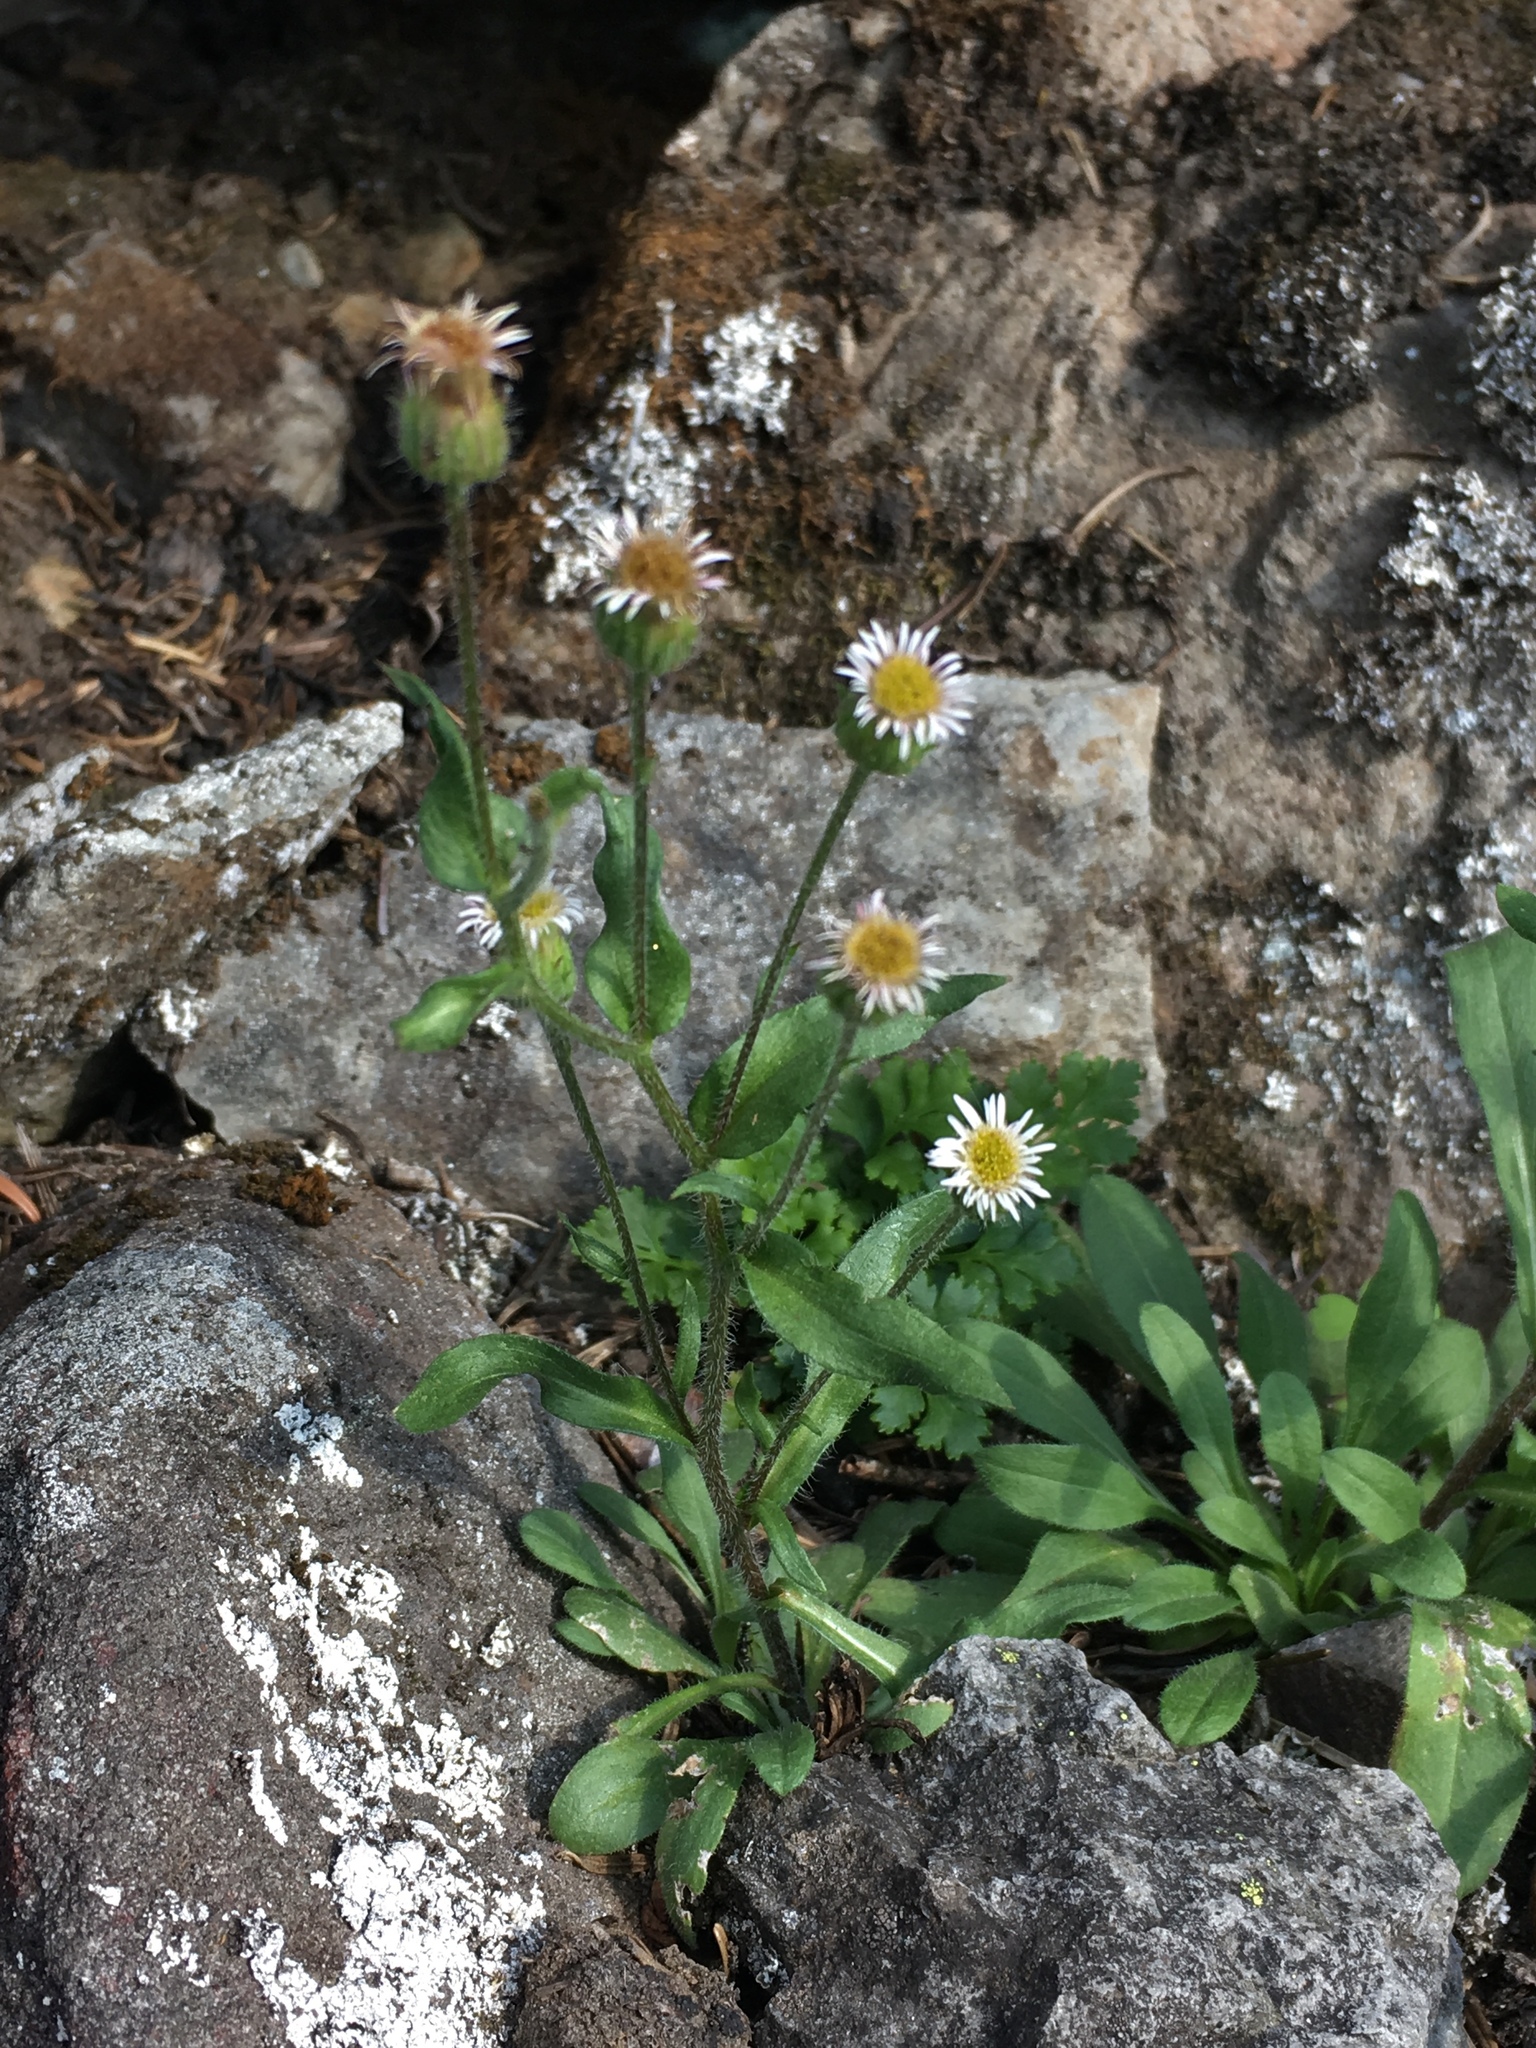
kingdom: Plantae
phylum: Tracheophyta
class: Magnoliopsida
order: Asterales
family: Asteraceae
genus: Erigeron
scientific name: Erigeron nivalis
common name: Snow fleabane
